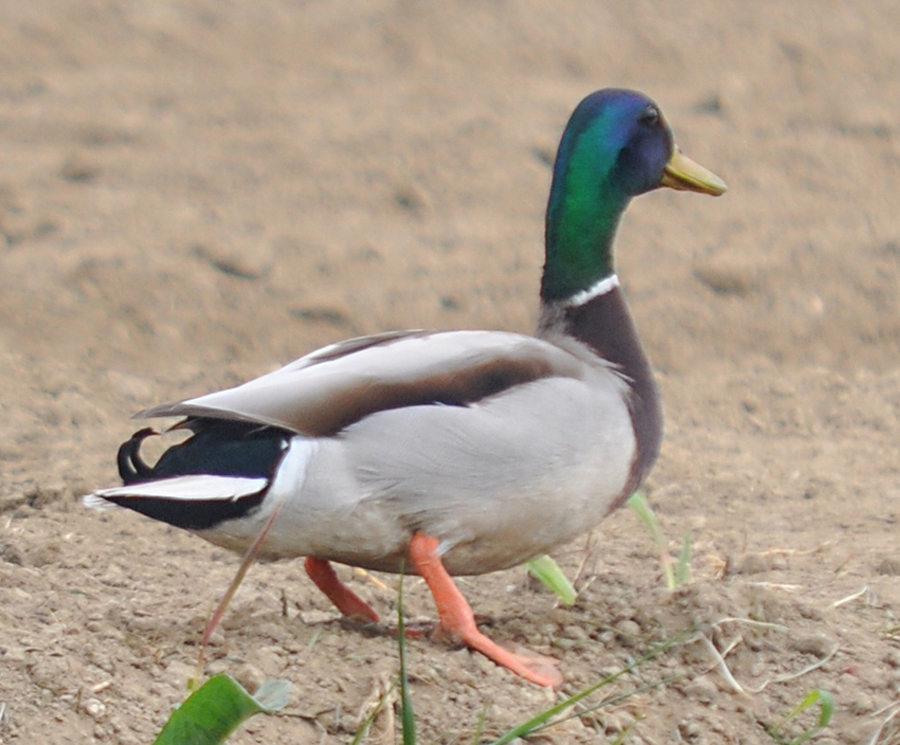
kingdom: Animalia
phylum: Chordata
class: Aves
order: Anseriformes
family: Anatidae
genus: Anas
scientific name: Anas platyrhynchos
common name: Mallard
